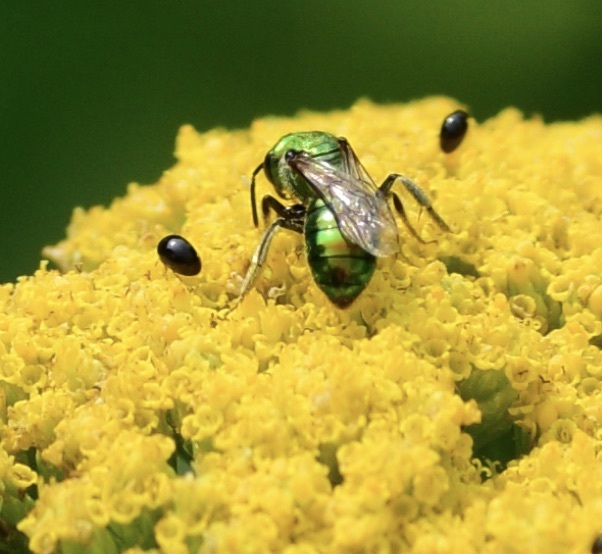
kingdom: Animalia
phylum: Arthropoda
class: Insecta
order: Hymenoptera
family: Halictidae
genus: Augochlora
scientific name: Augochlora pura
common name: Pure green sweat bee
